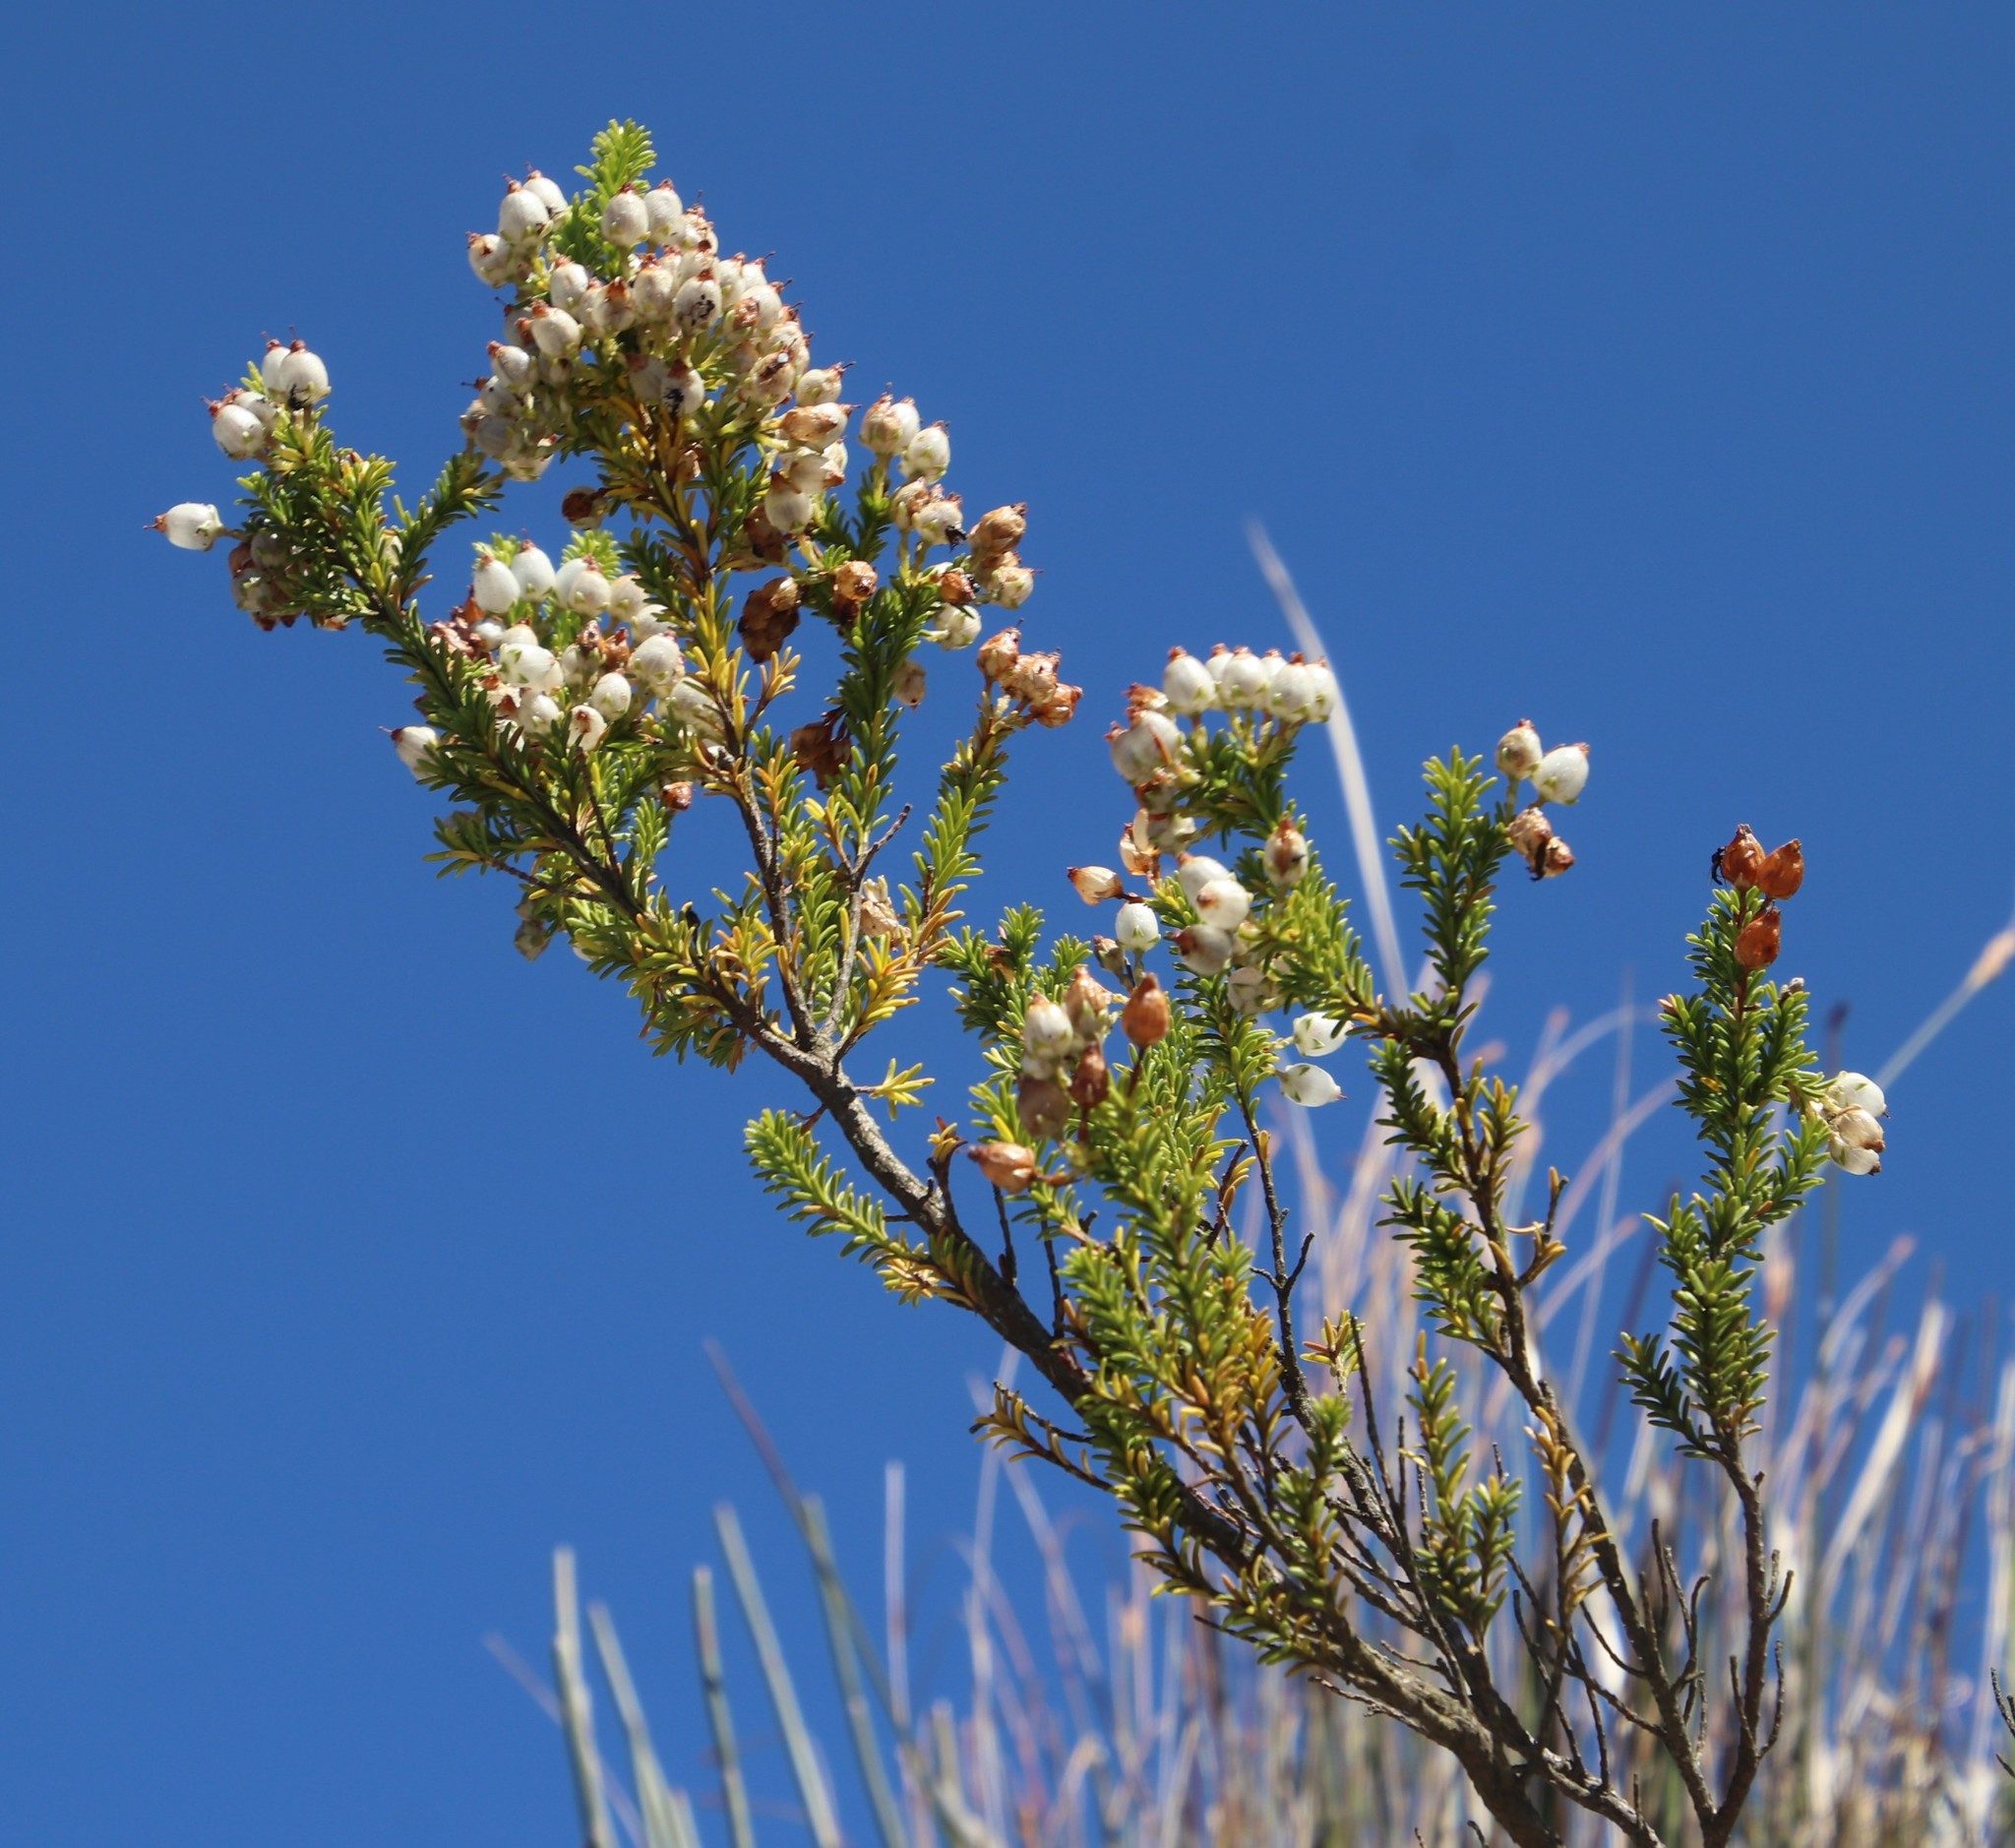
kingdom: Plantae
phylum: Tracheophyta
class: Magnoliopsida
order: Ericales
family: Ericaceae
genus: Erica
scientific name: Erica physodes
